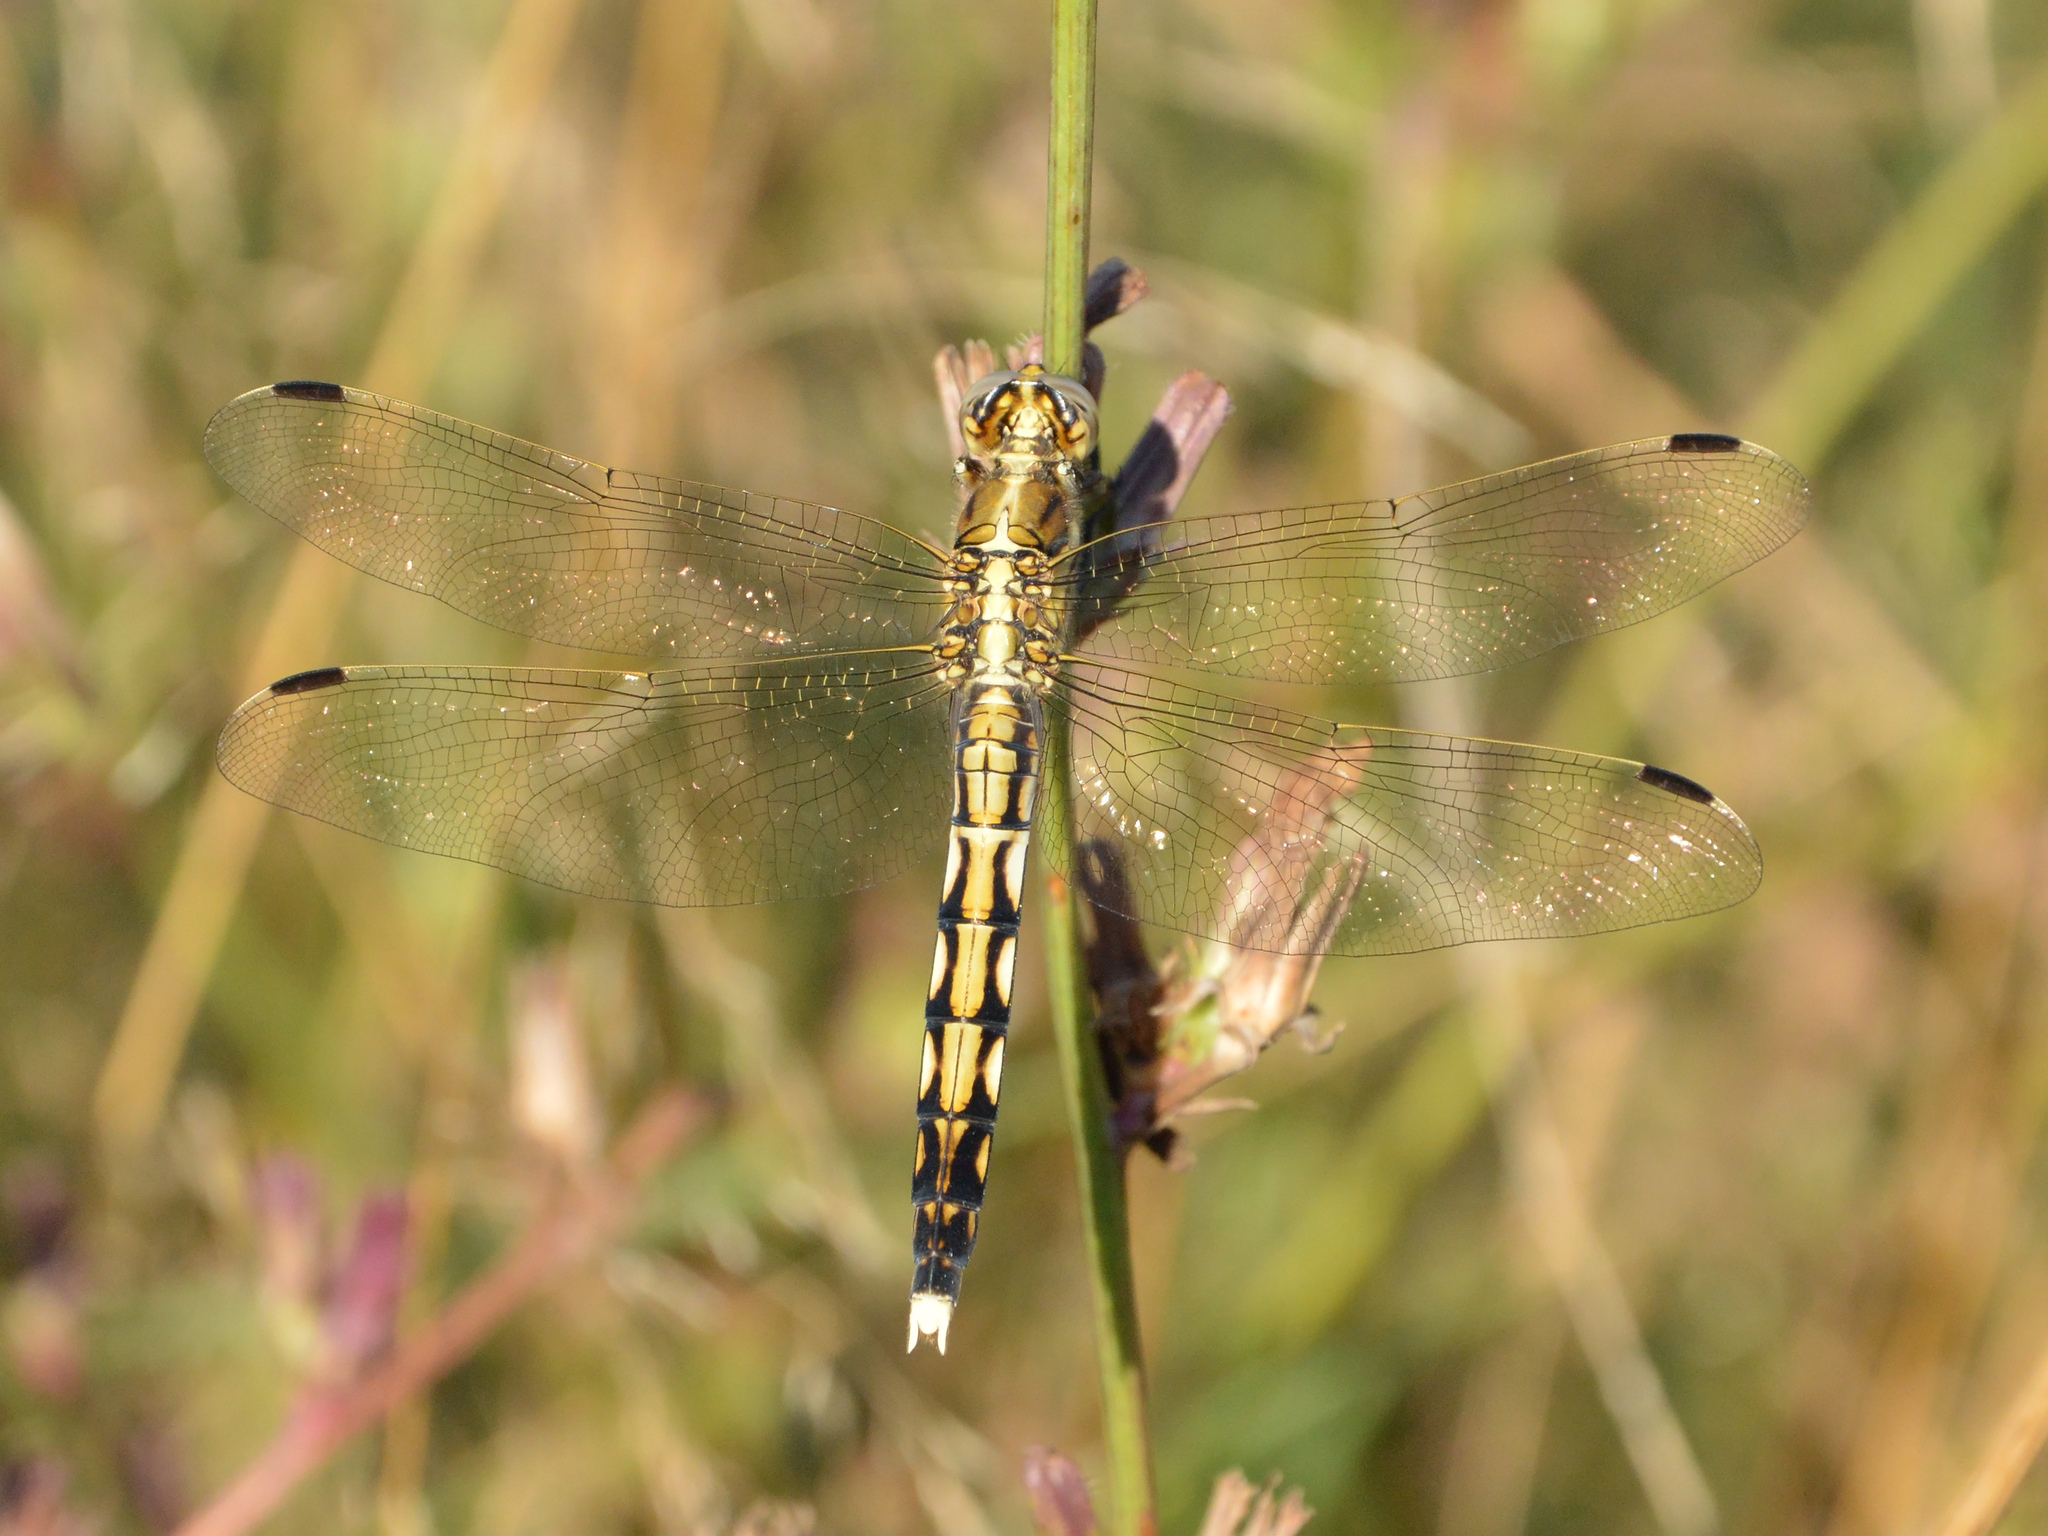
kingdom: Animalia
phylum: Arthropoda
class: Insecta
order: Odonata
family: Libellulidae
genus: Orthetrum
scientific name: Orthetrum albistylum
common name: White-tailed skimmer
